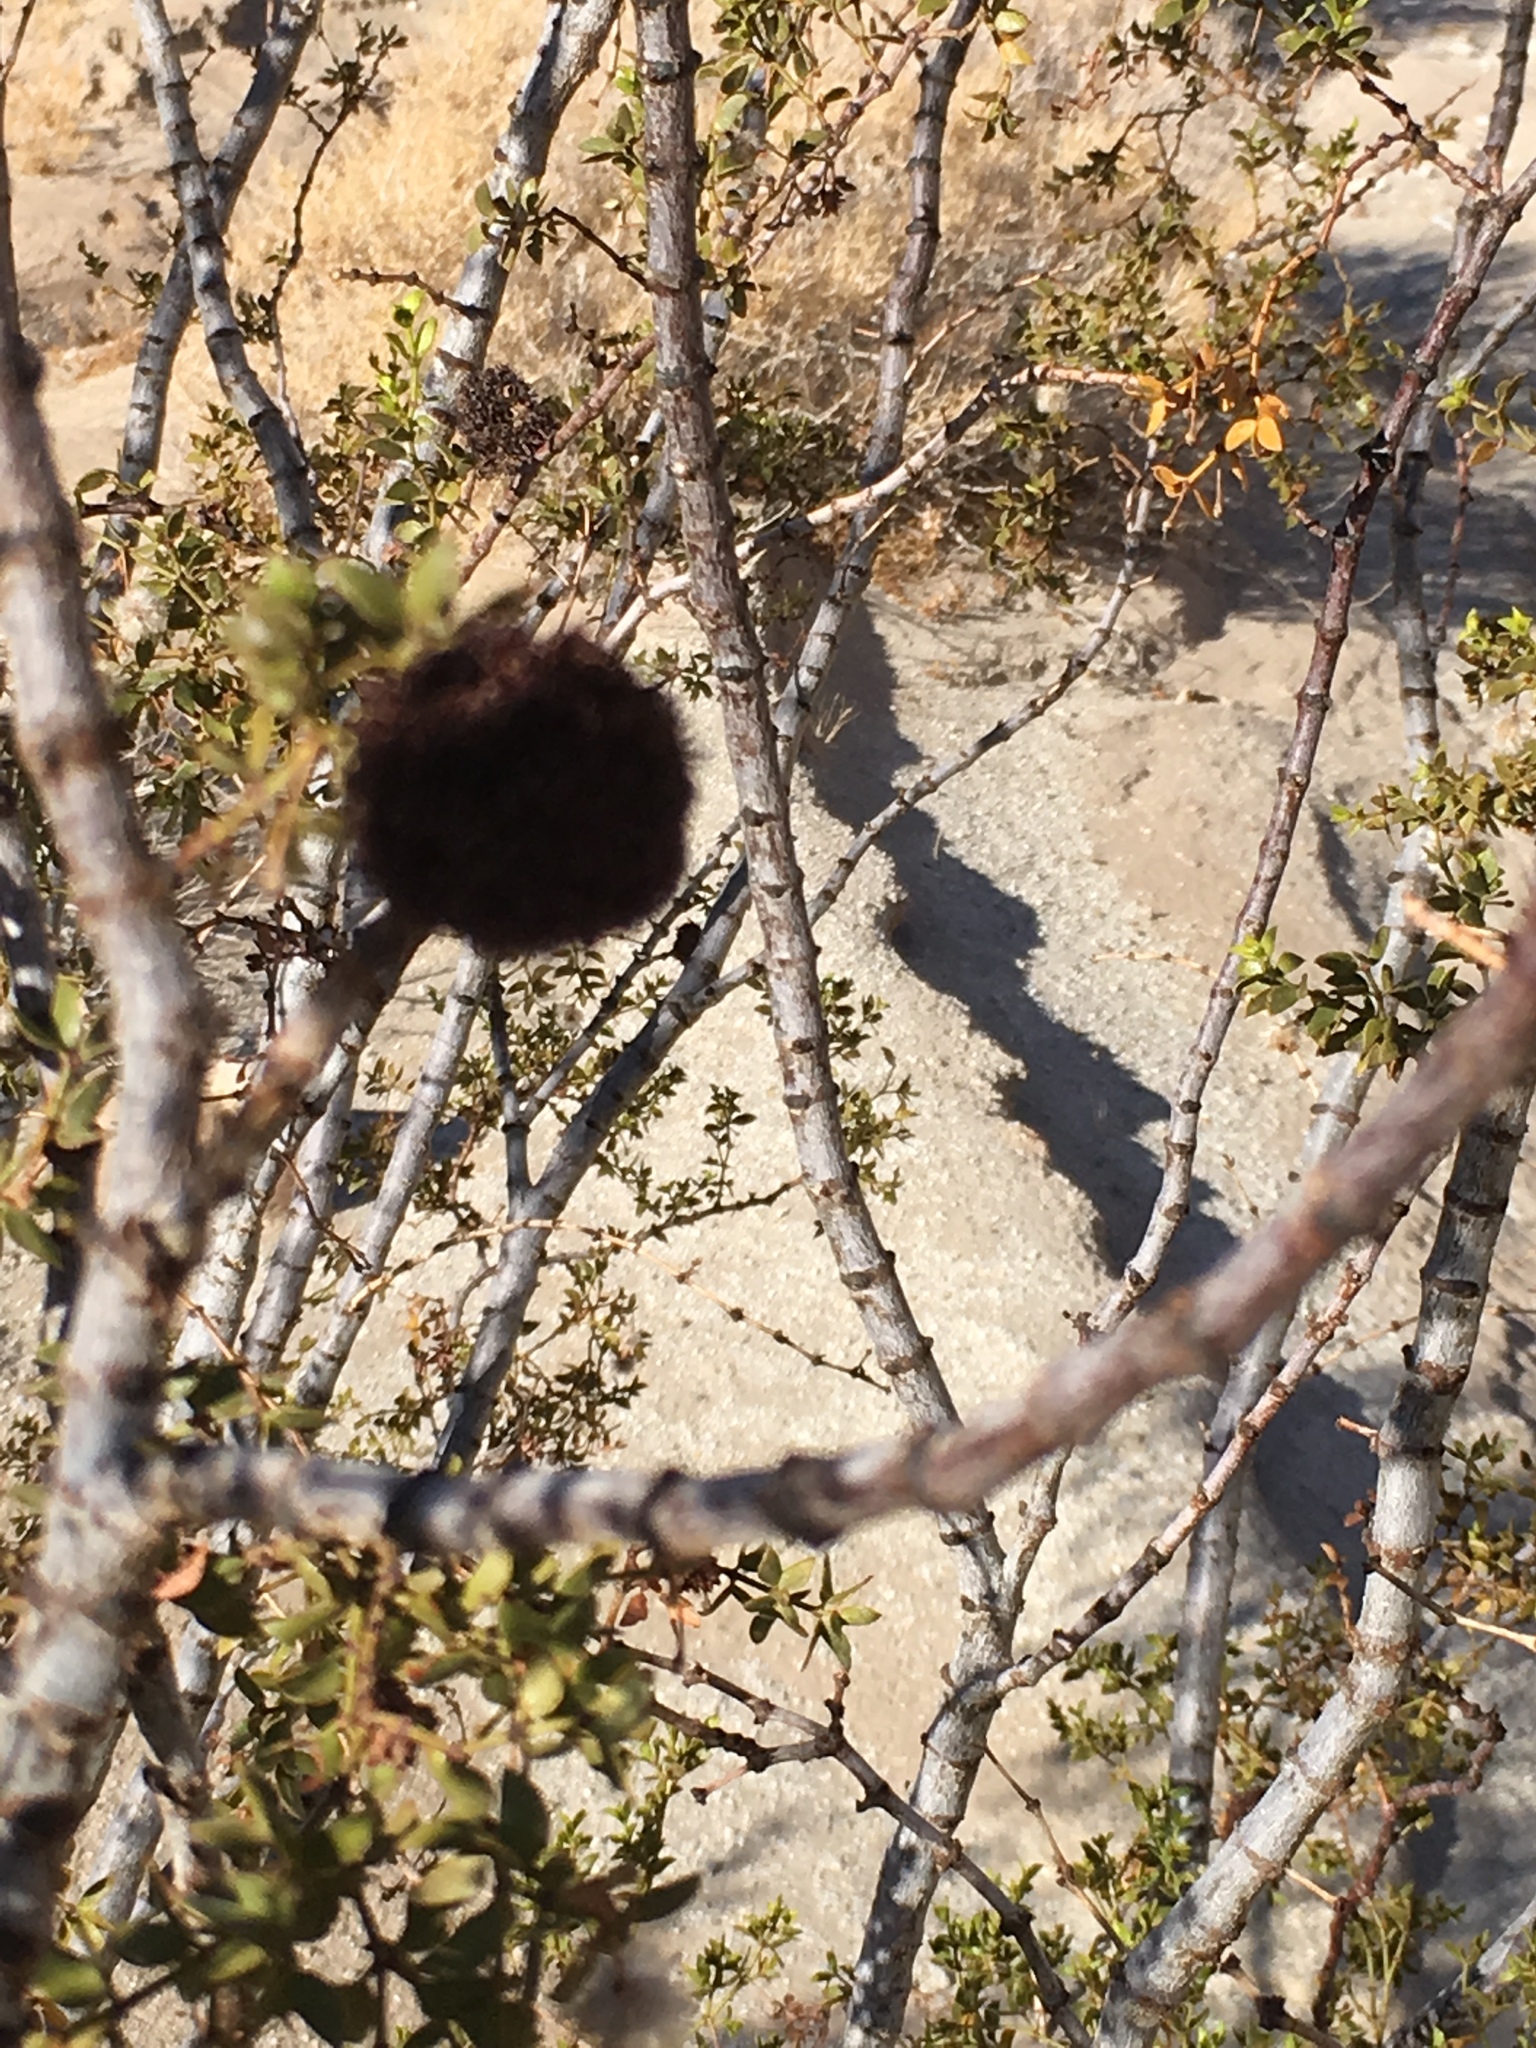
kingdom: Plantae
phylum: Tracheophyta
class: Magnoliopsida
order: Zygophyllales
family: Zygophyllaceae
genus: Larrea
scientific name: Larrea tridentata
